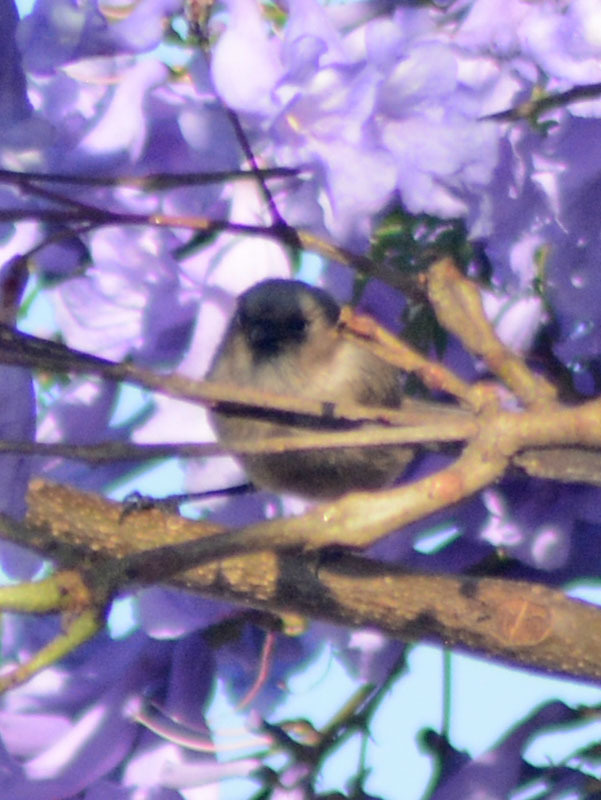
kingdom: Animalia
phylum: Chordata
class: Aves
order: Passeriformes
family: Aegithalidae
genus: Psaltriparus
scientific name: Psaltriparus minimus
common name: American bushtit
